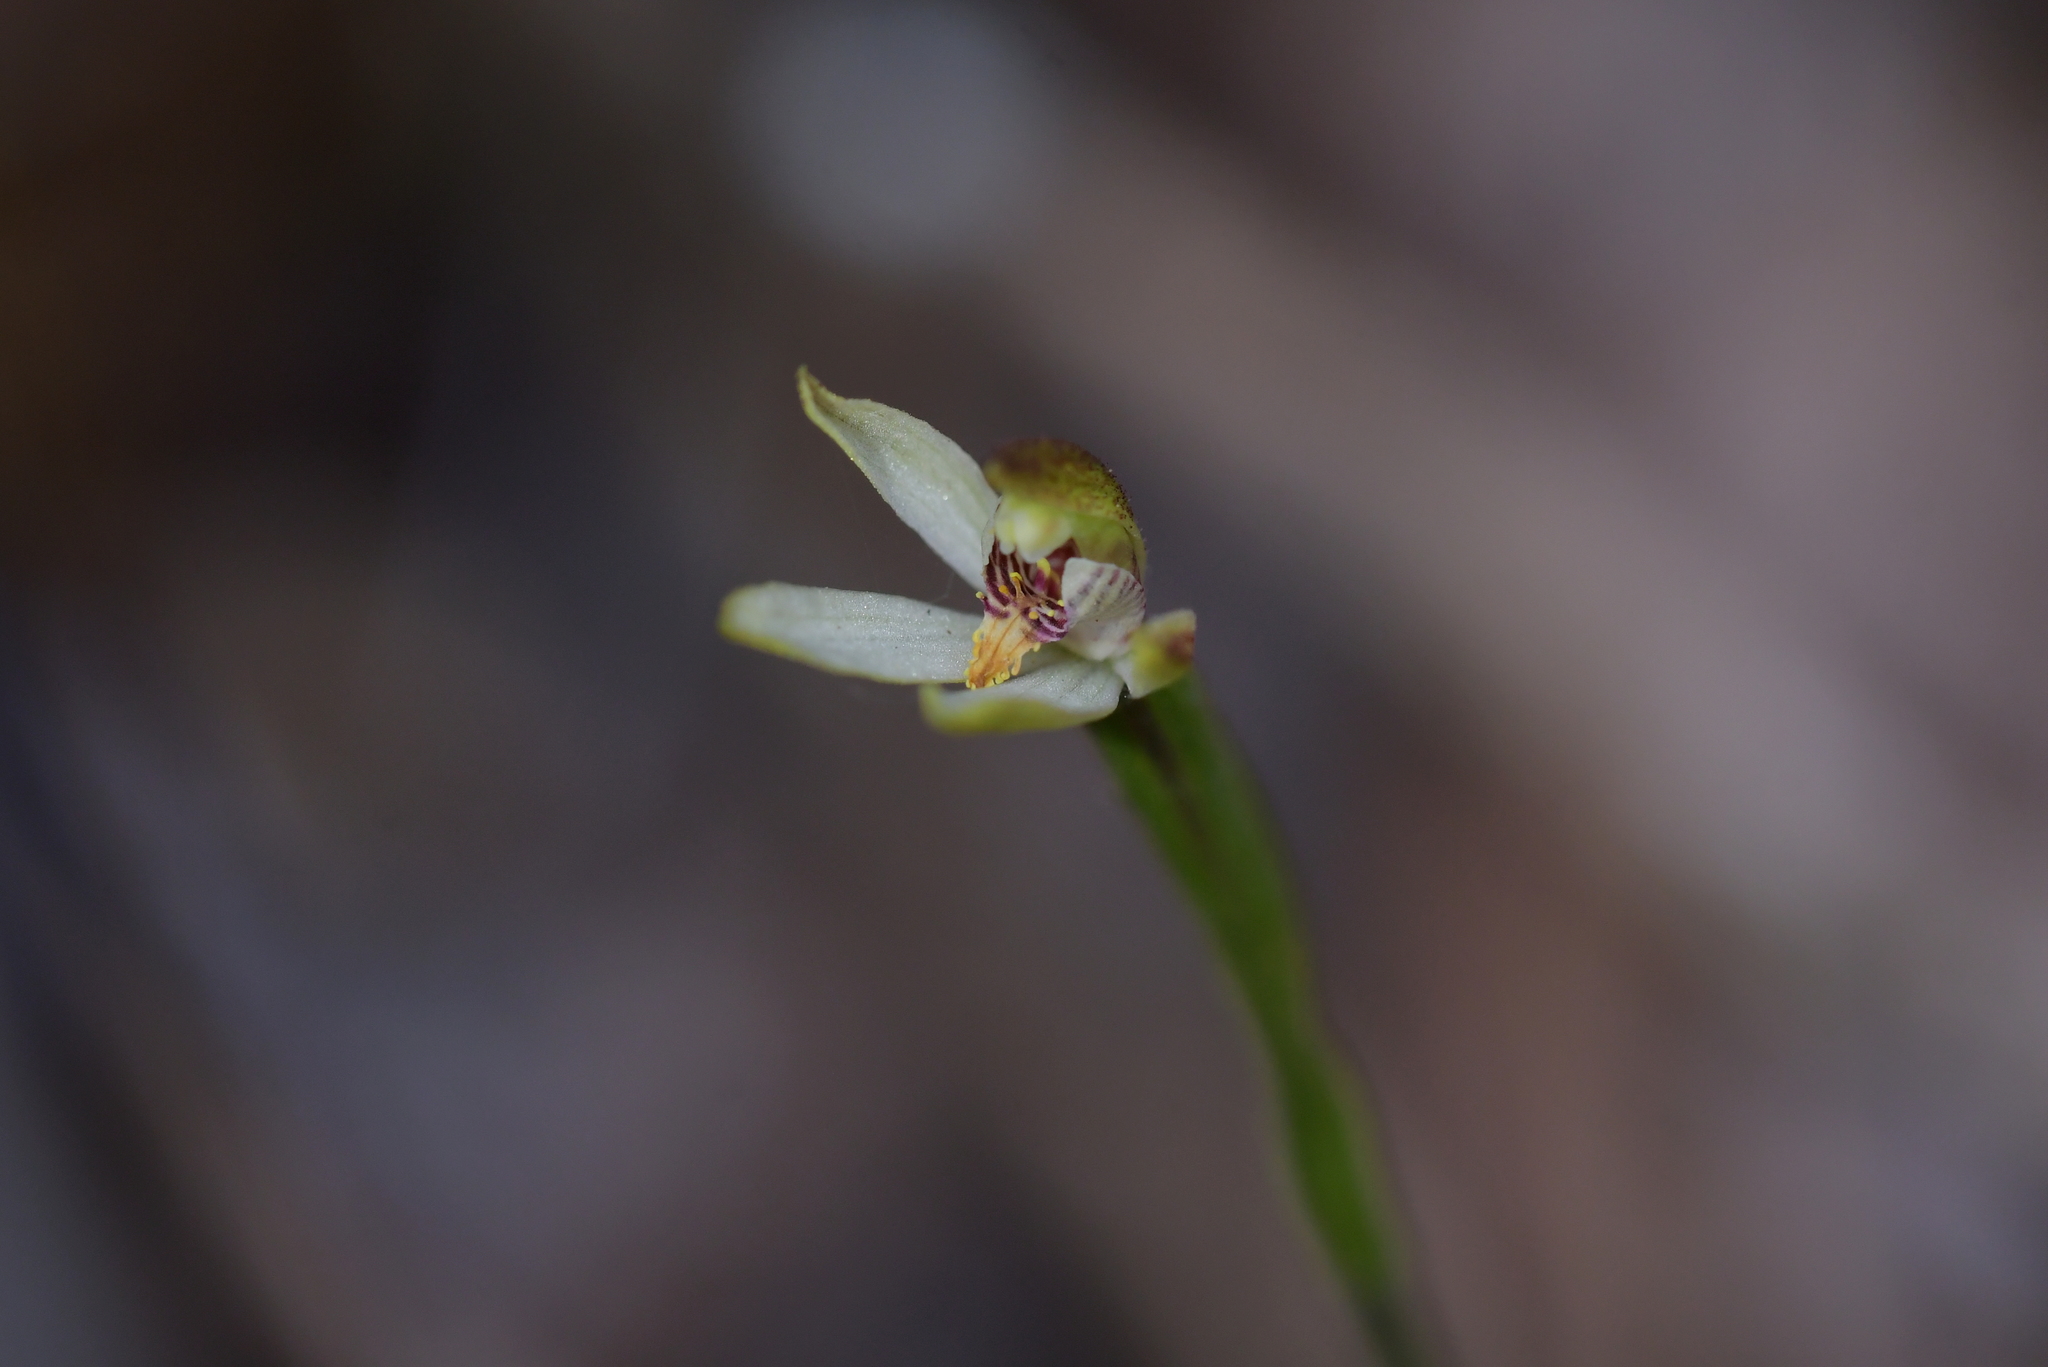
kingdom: Plantae
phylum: Tracheophyta
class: Liliopsida
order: Asparagales
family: Orchidaceae
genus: Caladenia
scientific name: Caladenia chlorostyla
